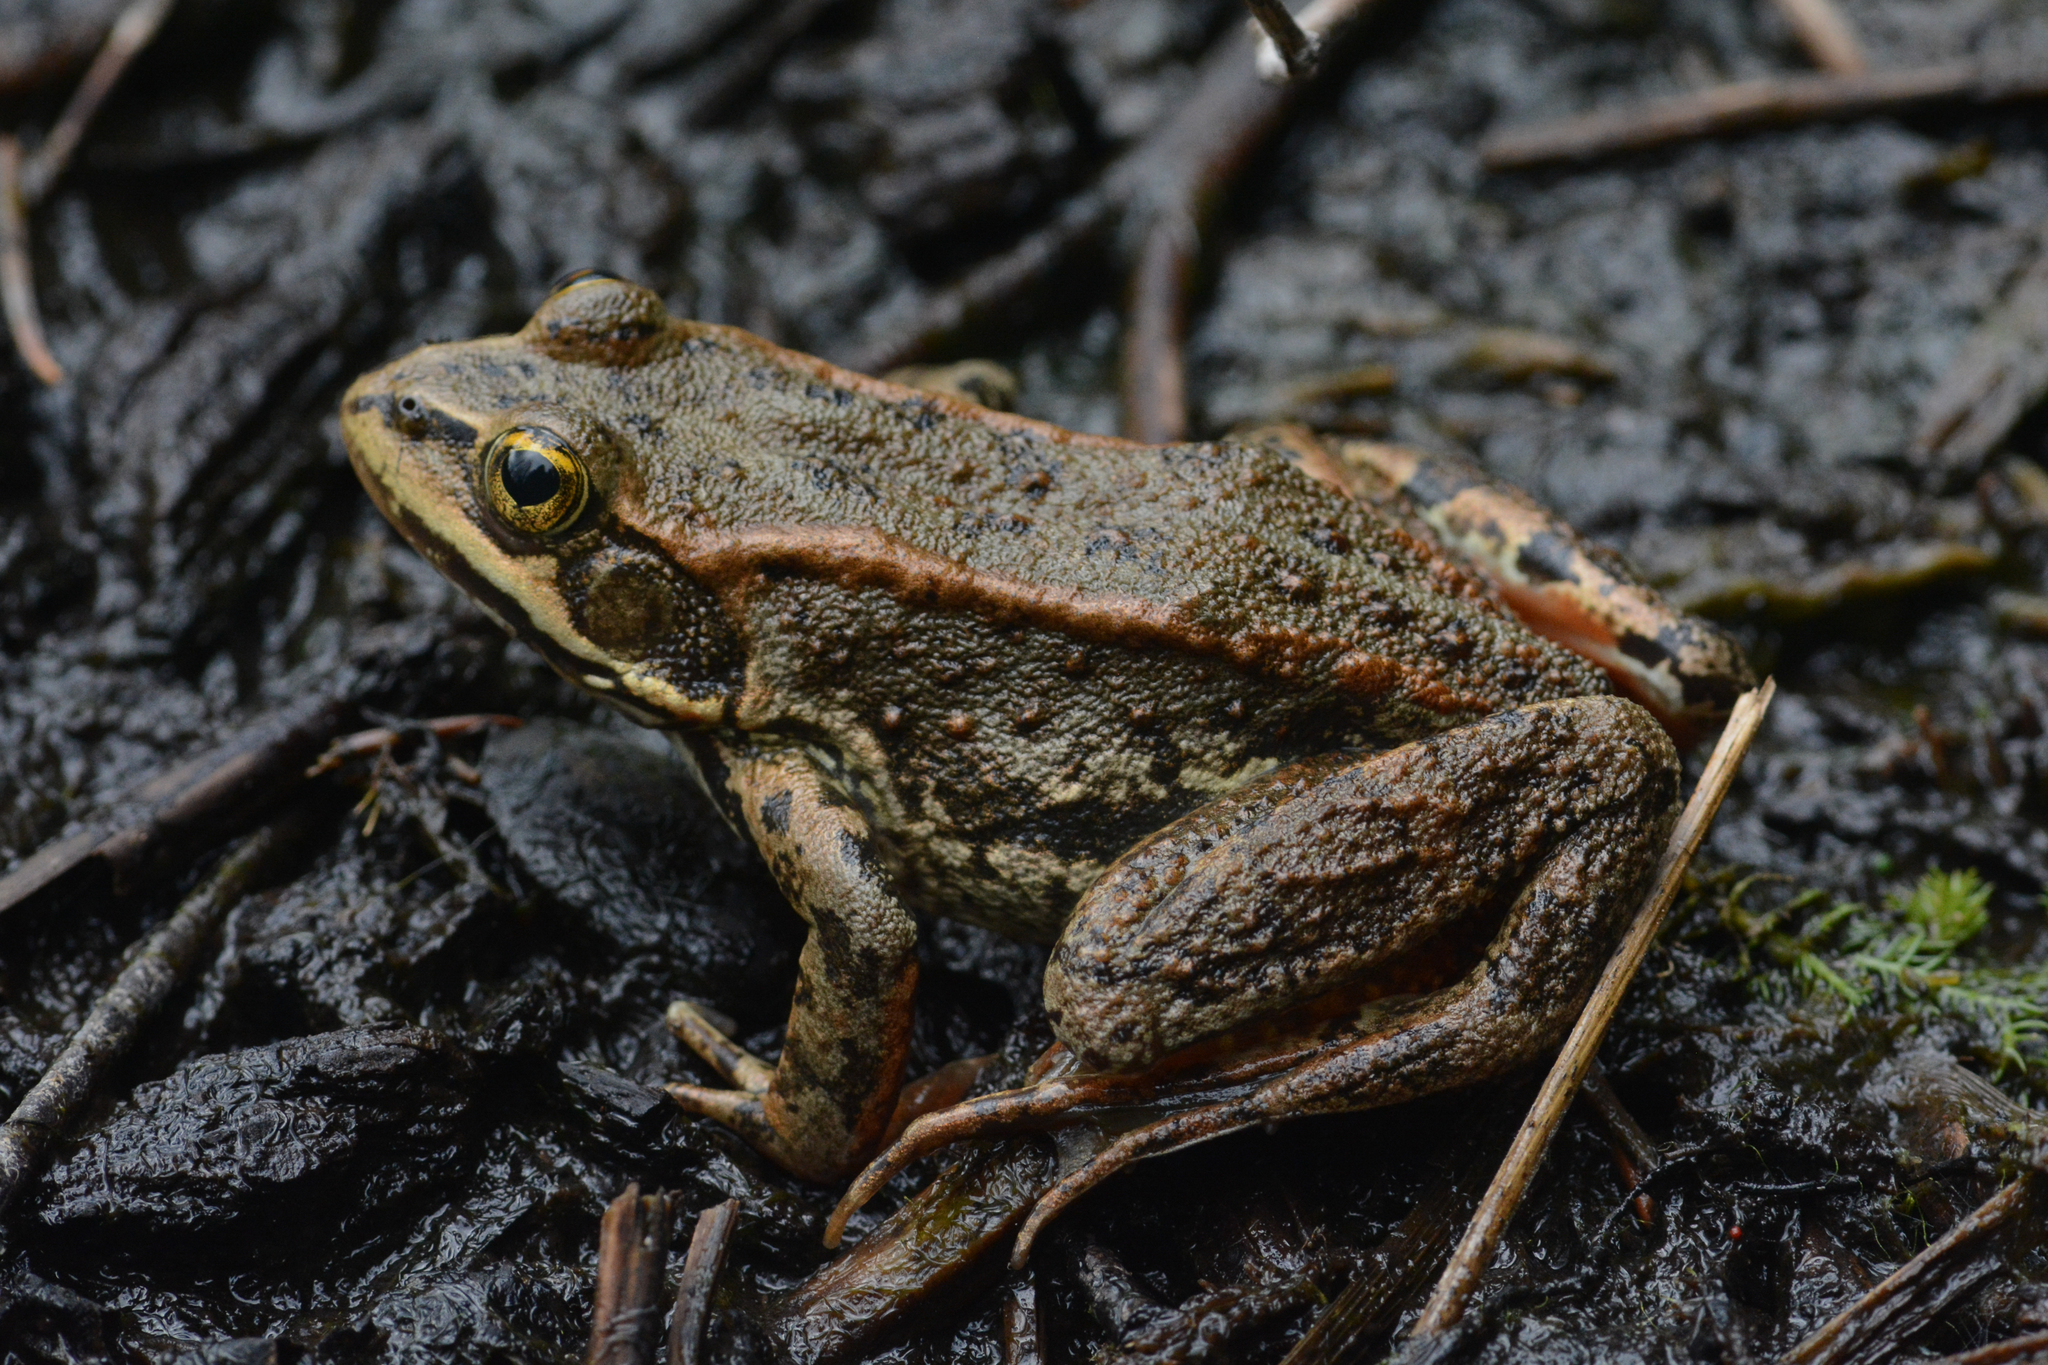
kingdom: Animalia
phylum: Chordata
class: Amphibia
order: Anura
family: Ranidae
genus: Rana
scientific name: Rana luteiventris
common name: Columbia spotted frog
